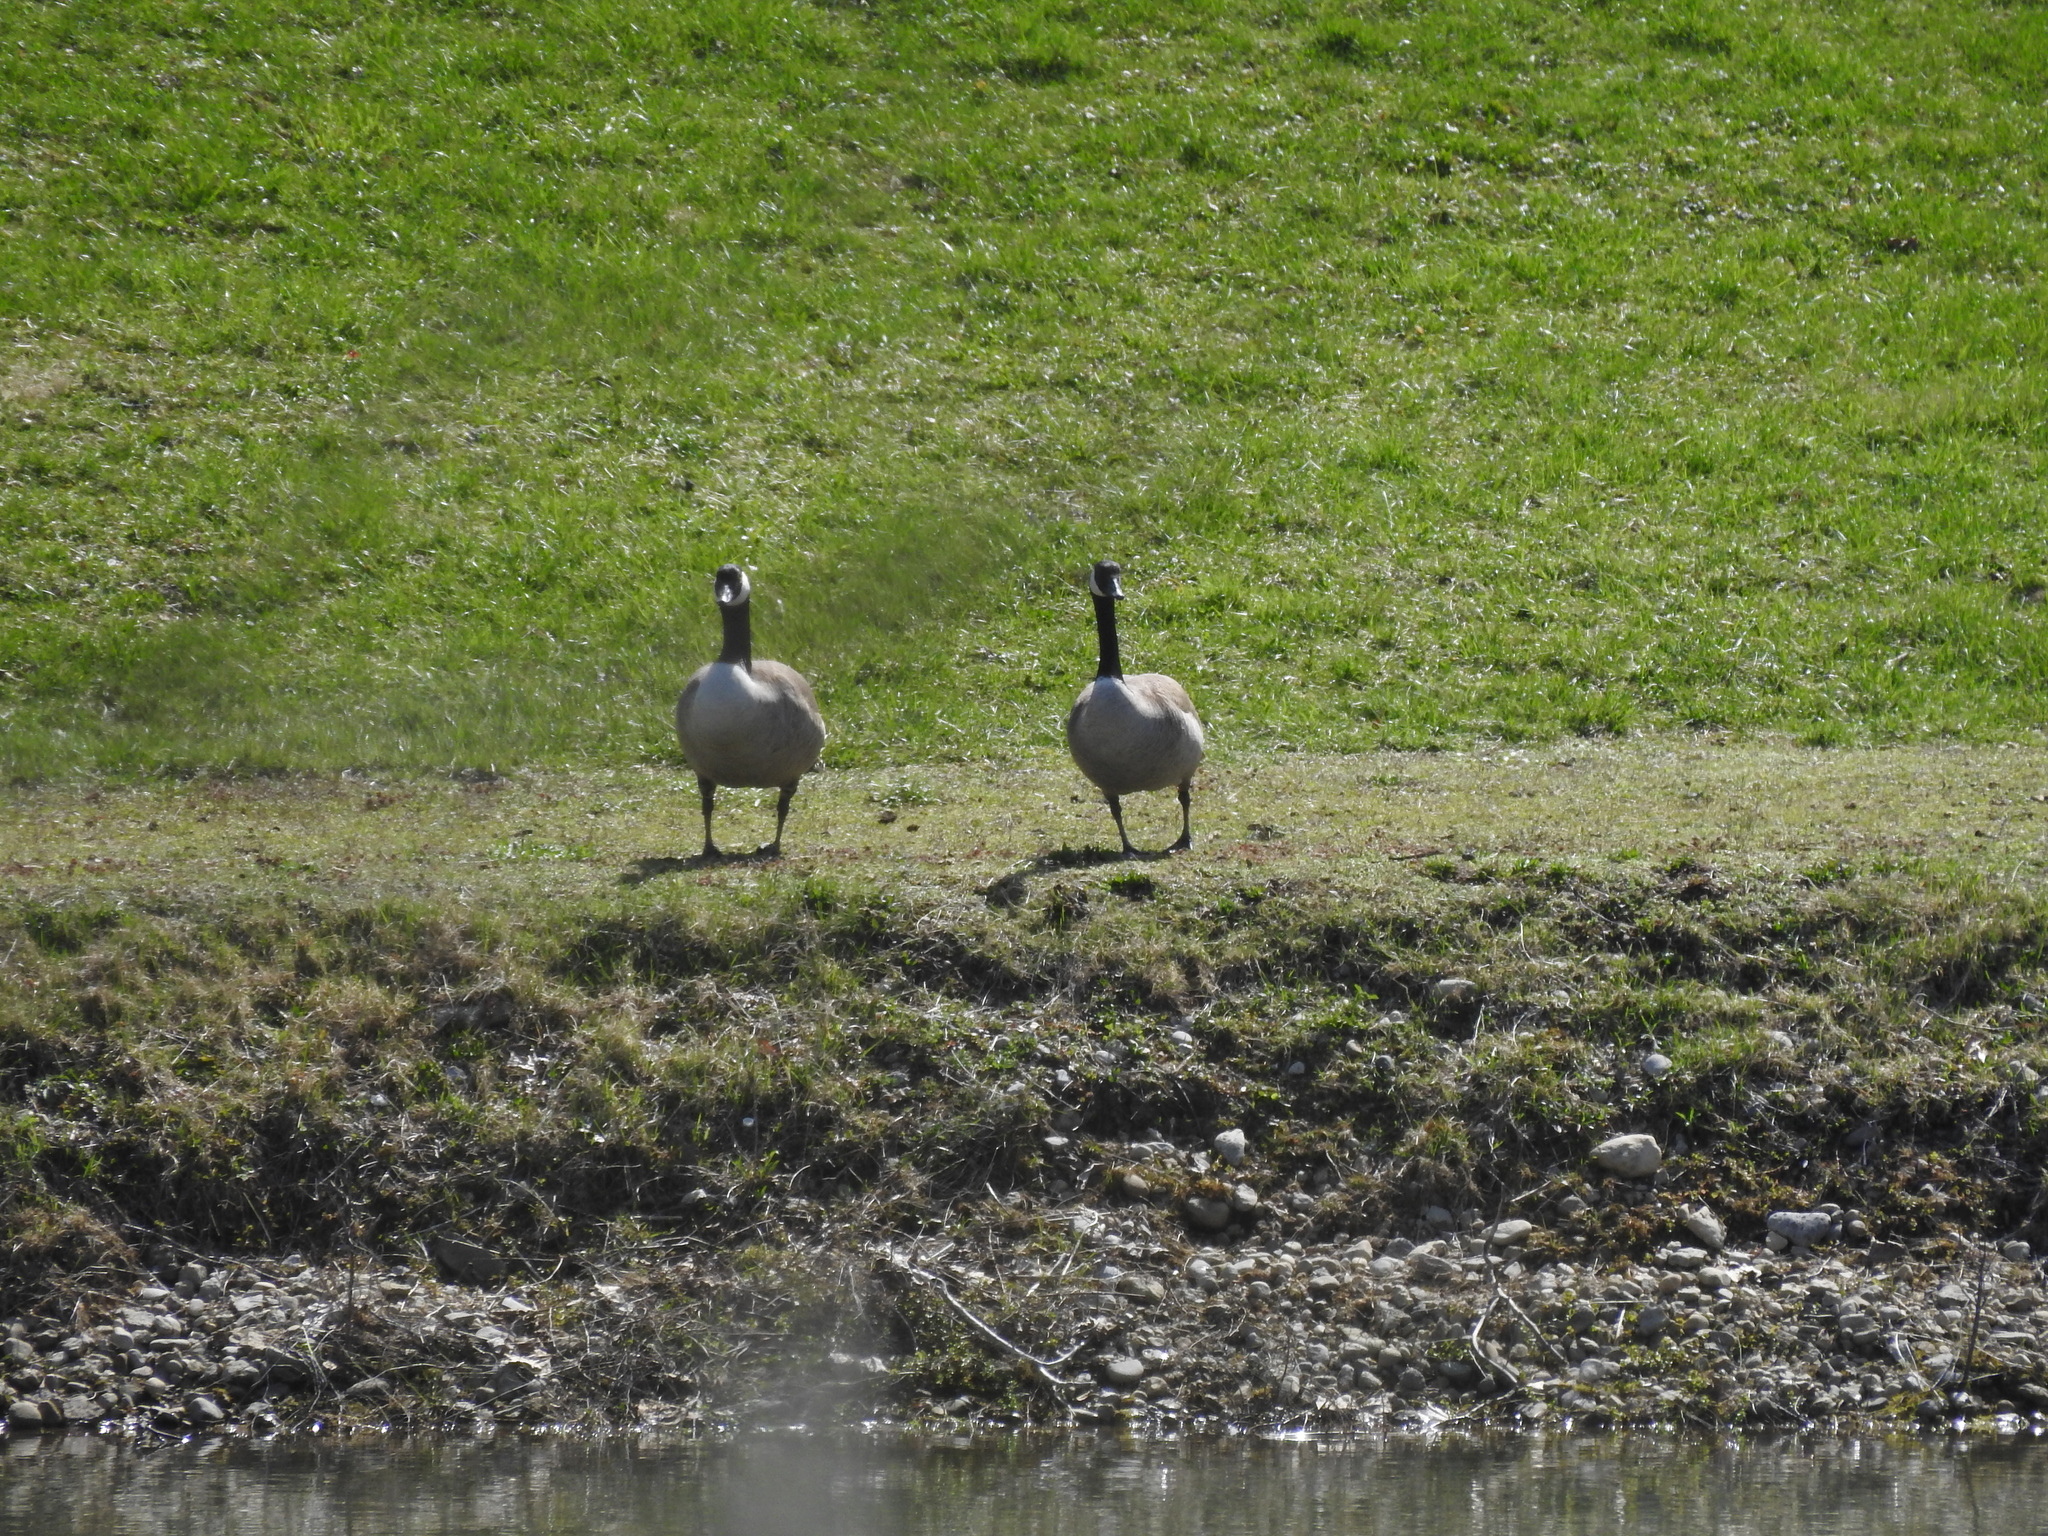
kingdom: Animalia
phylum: Chordata
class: Aves
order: Anseriformes
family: Anatidae
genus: Branta
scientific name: Branta canadensis
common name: Canada goose
